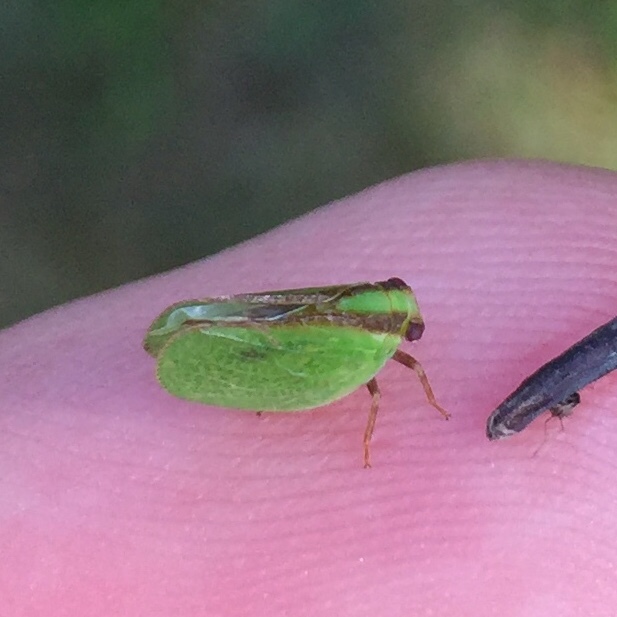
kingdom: Animalia
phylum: Arthropoda
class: Insecta
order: Hemiptera
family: Acanaloniidae
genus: Acanalonia
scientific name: Acanalonia bivittata
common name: Two-striped planthopper
